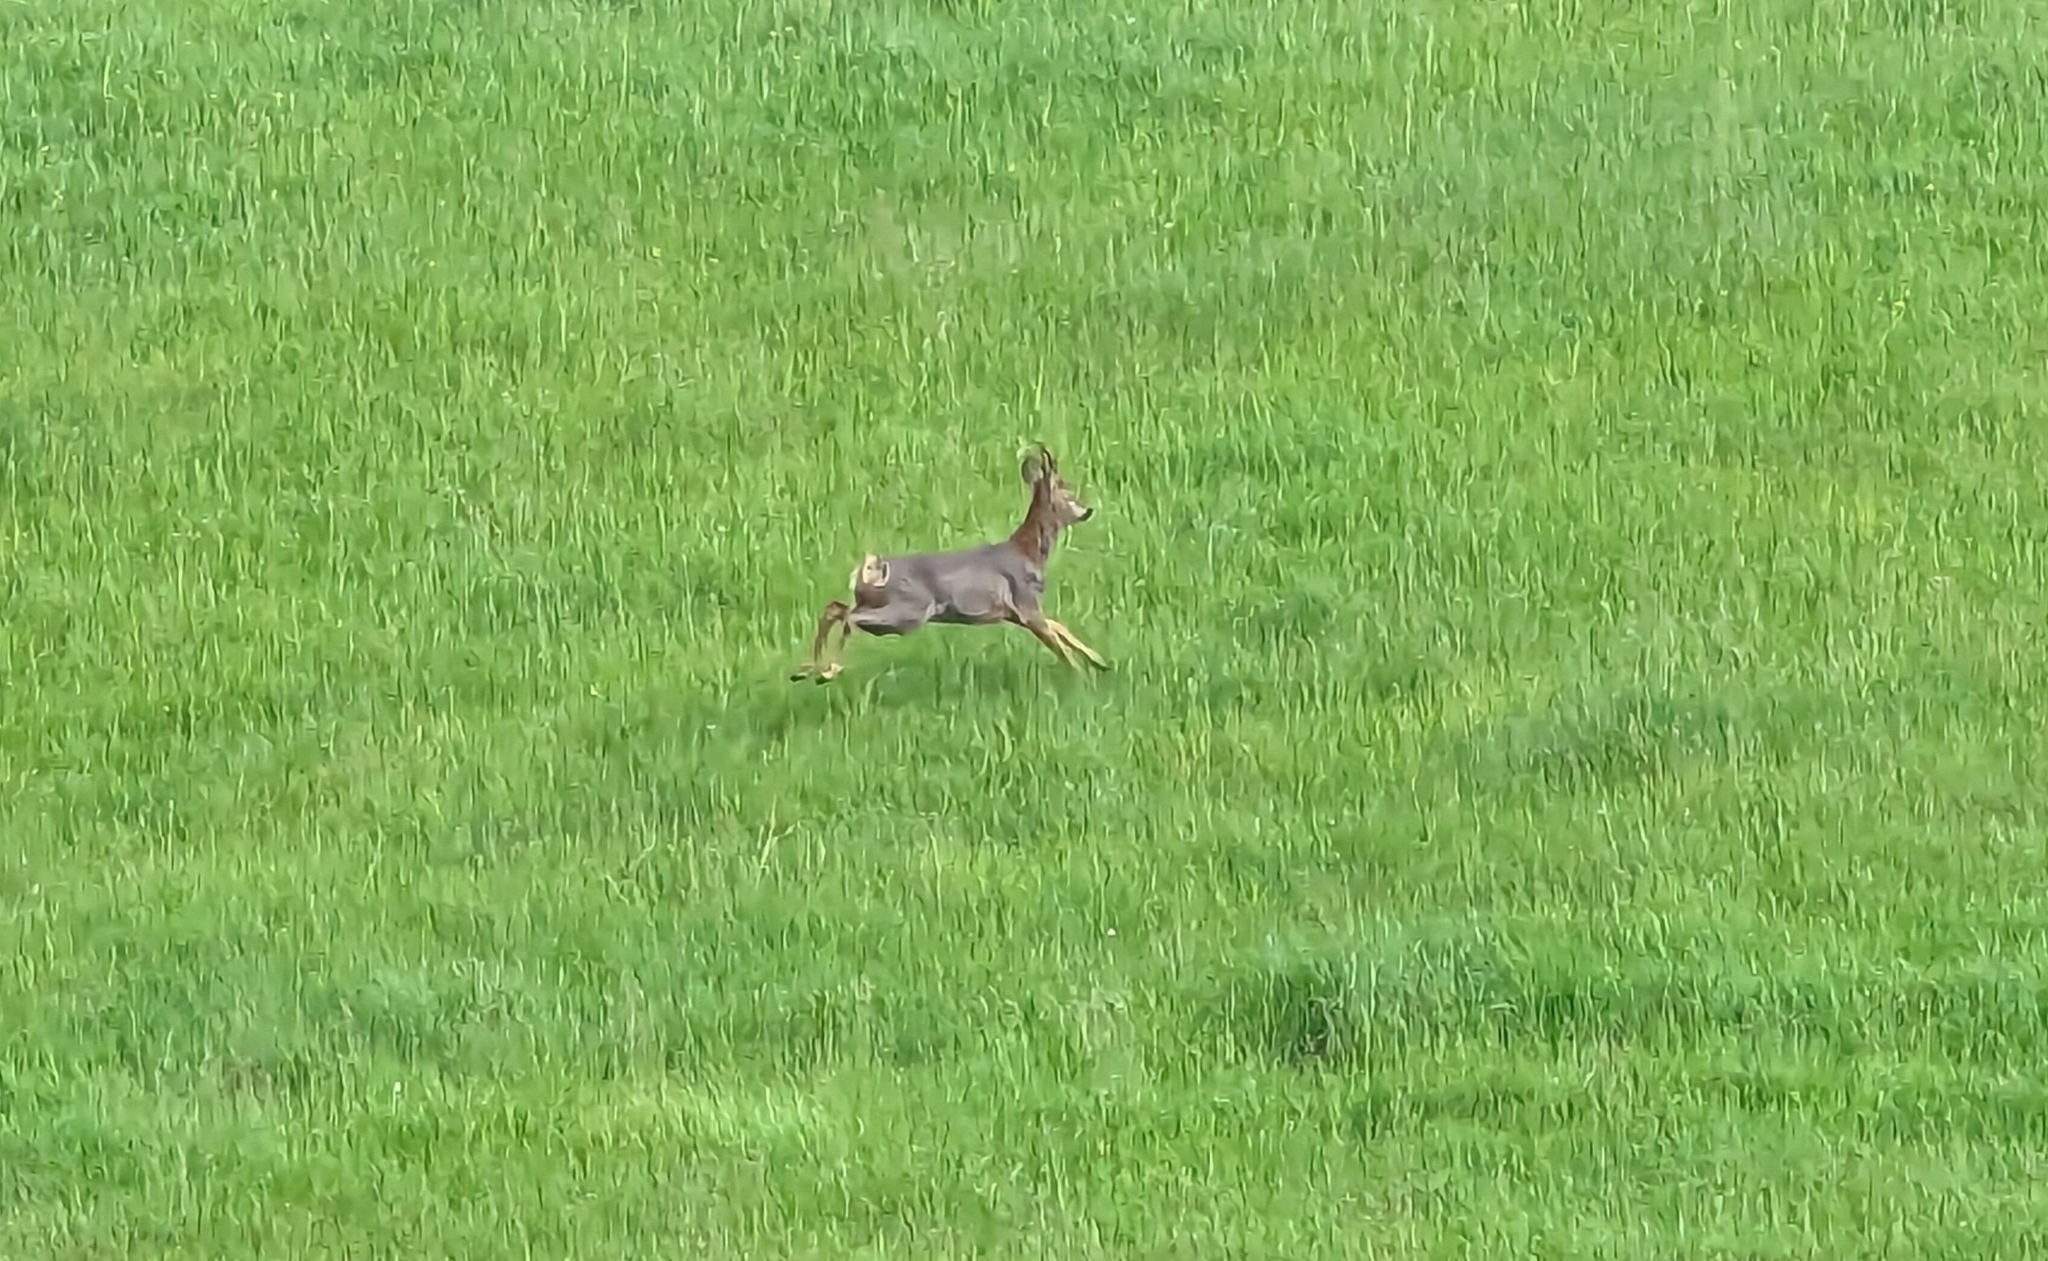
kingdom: Animalia
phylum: Chordata
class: Mammalia
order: Artiodactyla
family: Cervidae
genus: Capreolus
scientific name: Capreolus capreolus
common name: Western roe deer
